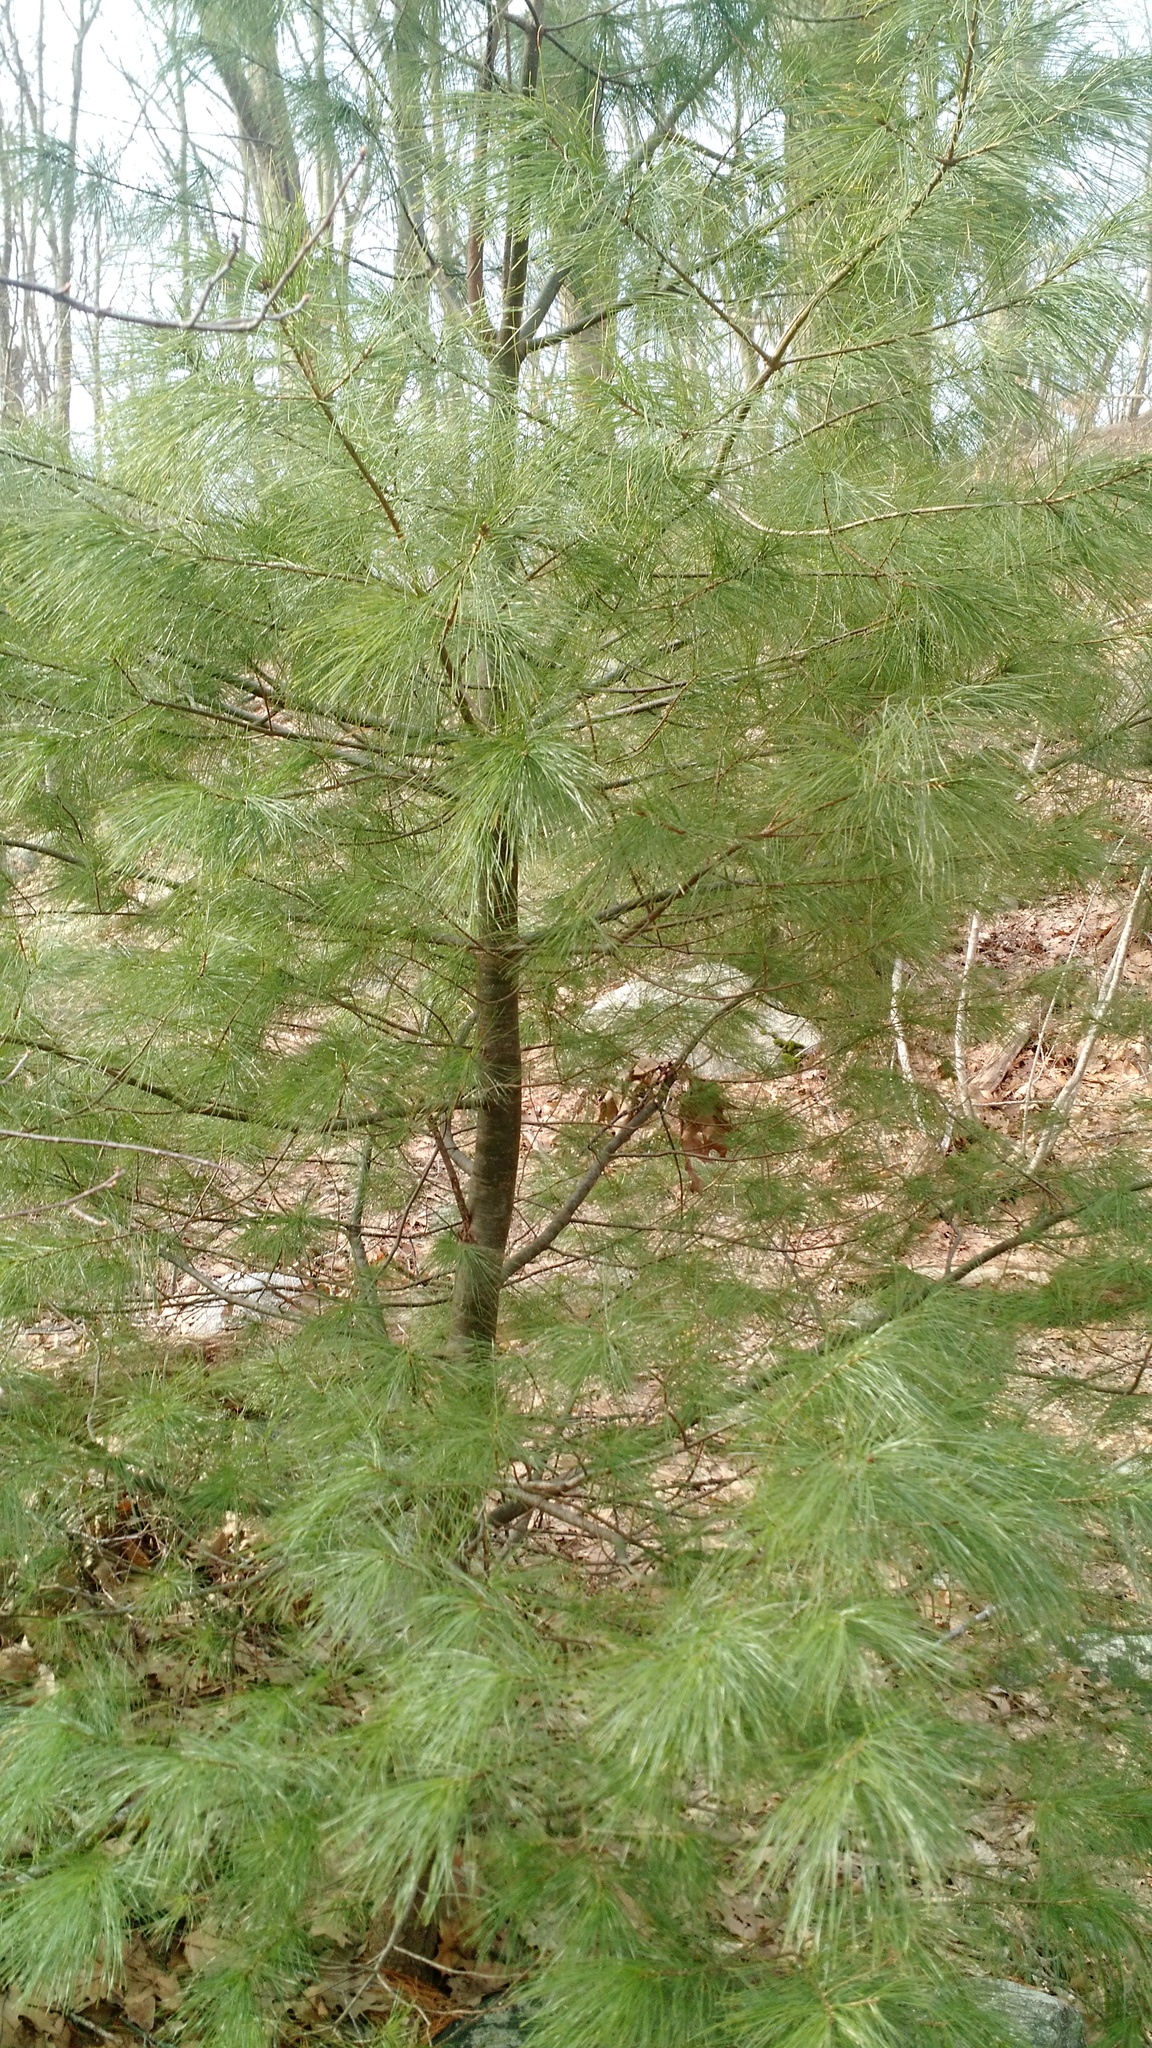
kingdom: Plantae
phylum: Tracheophyta
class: Pinopsida
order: Pinales
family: Pinaceae
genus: Pinus
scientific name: Pinus strobus
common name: Weymouth pine
